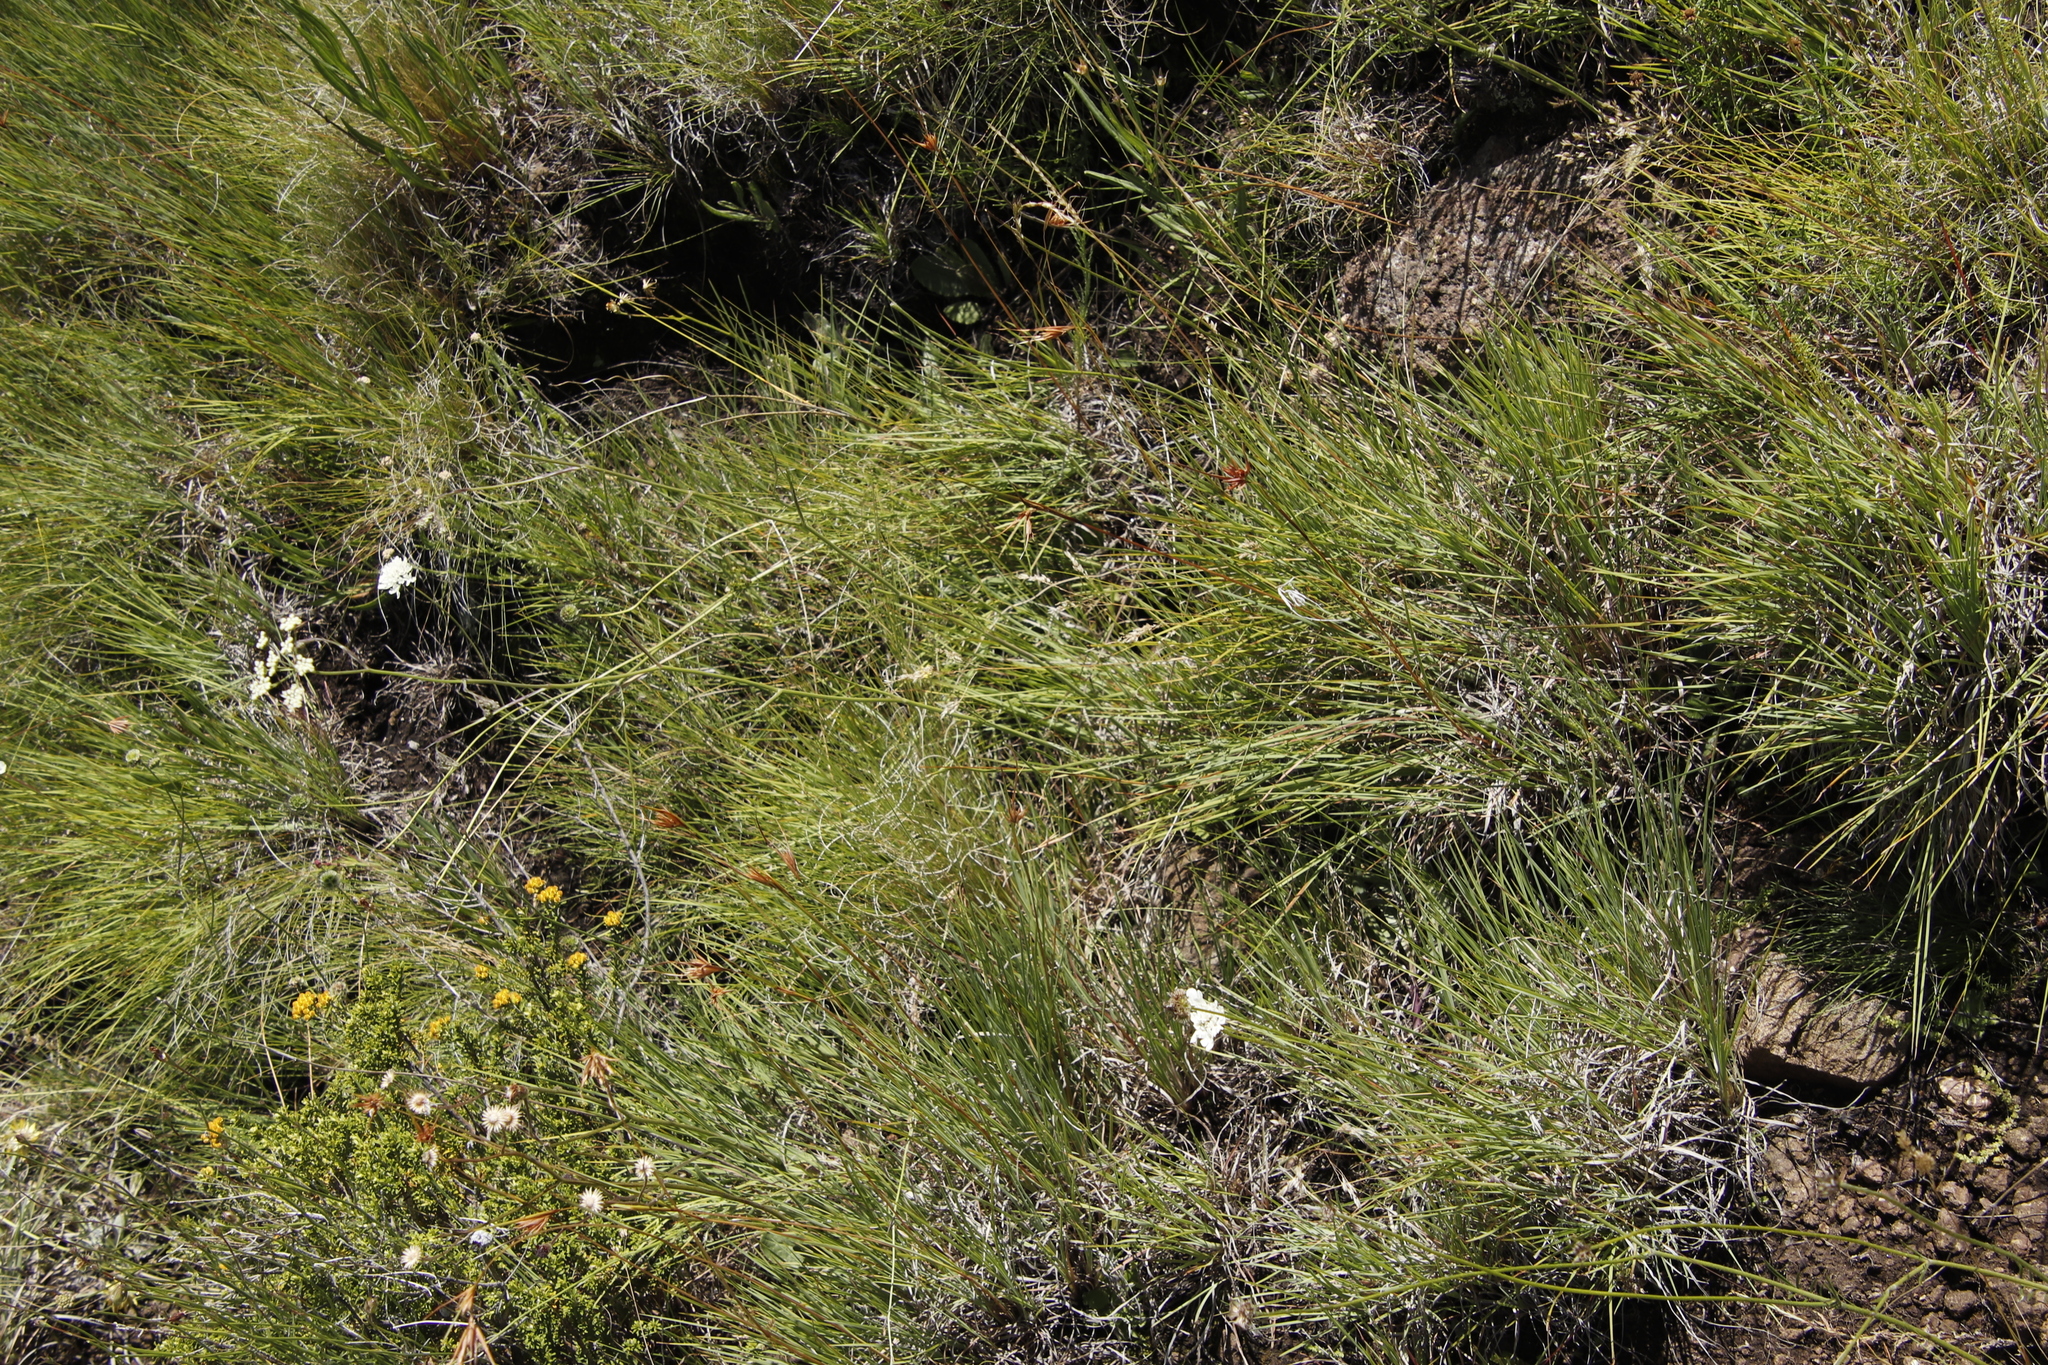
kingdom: Plantae
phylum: Tracheophyta
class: Magnoliopsida
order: Apiales
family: Apiaceae
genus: Pimpinella
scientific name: Pimpinella caffra
